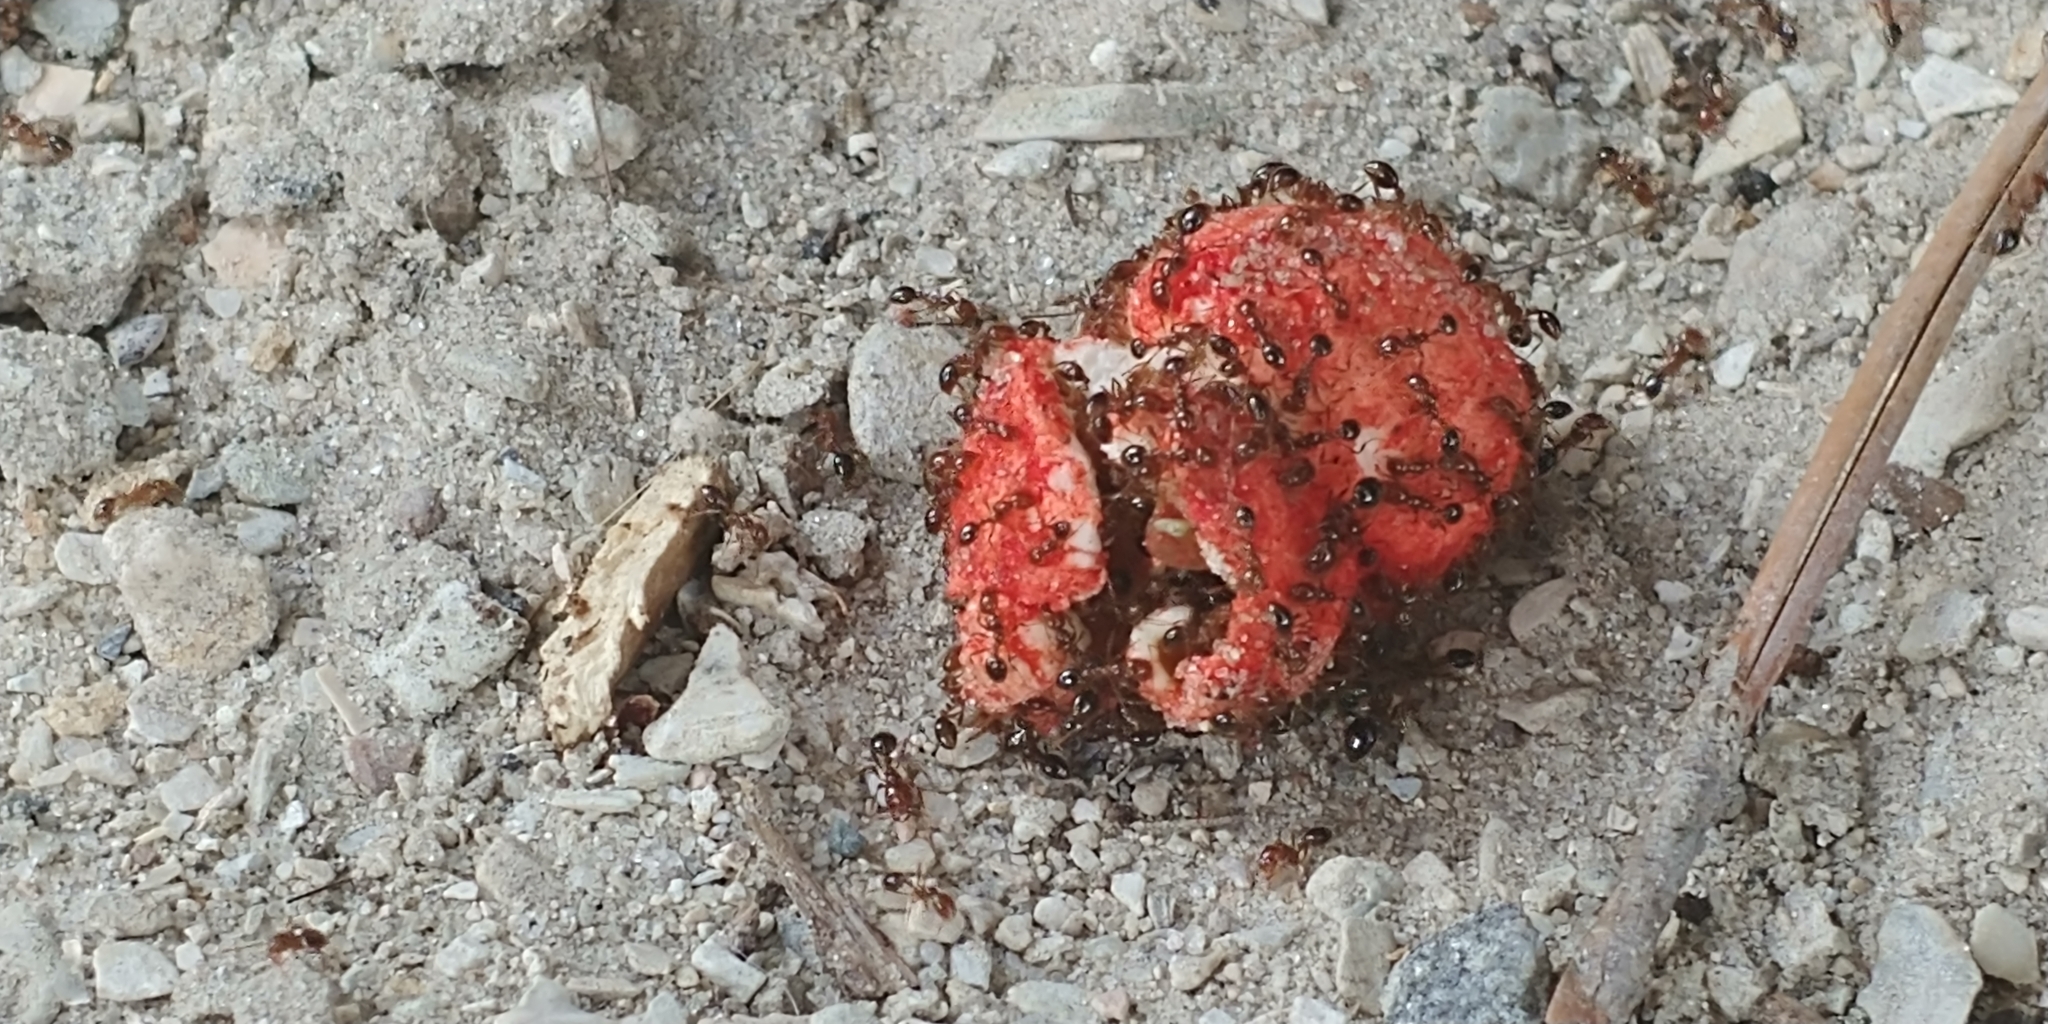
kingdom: Animalia
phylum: Arthropoda
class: Insecta
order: Hymenoptera
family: Formicidae
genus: Solenopsis
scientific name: Solenopsis invicta
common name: Red imported fire ant
